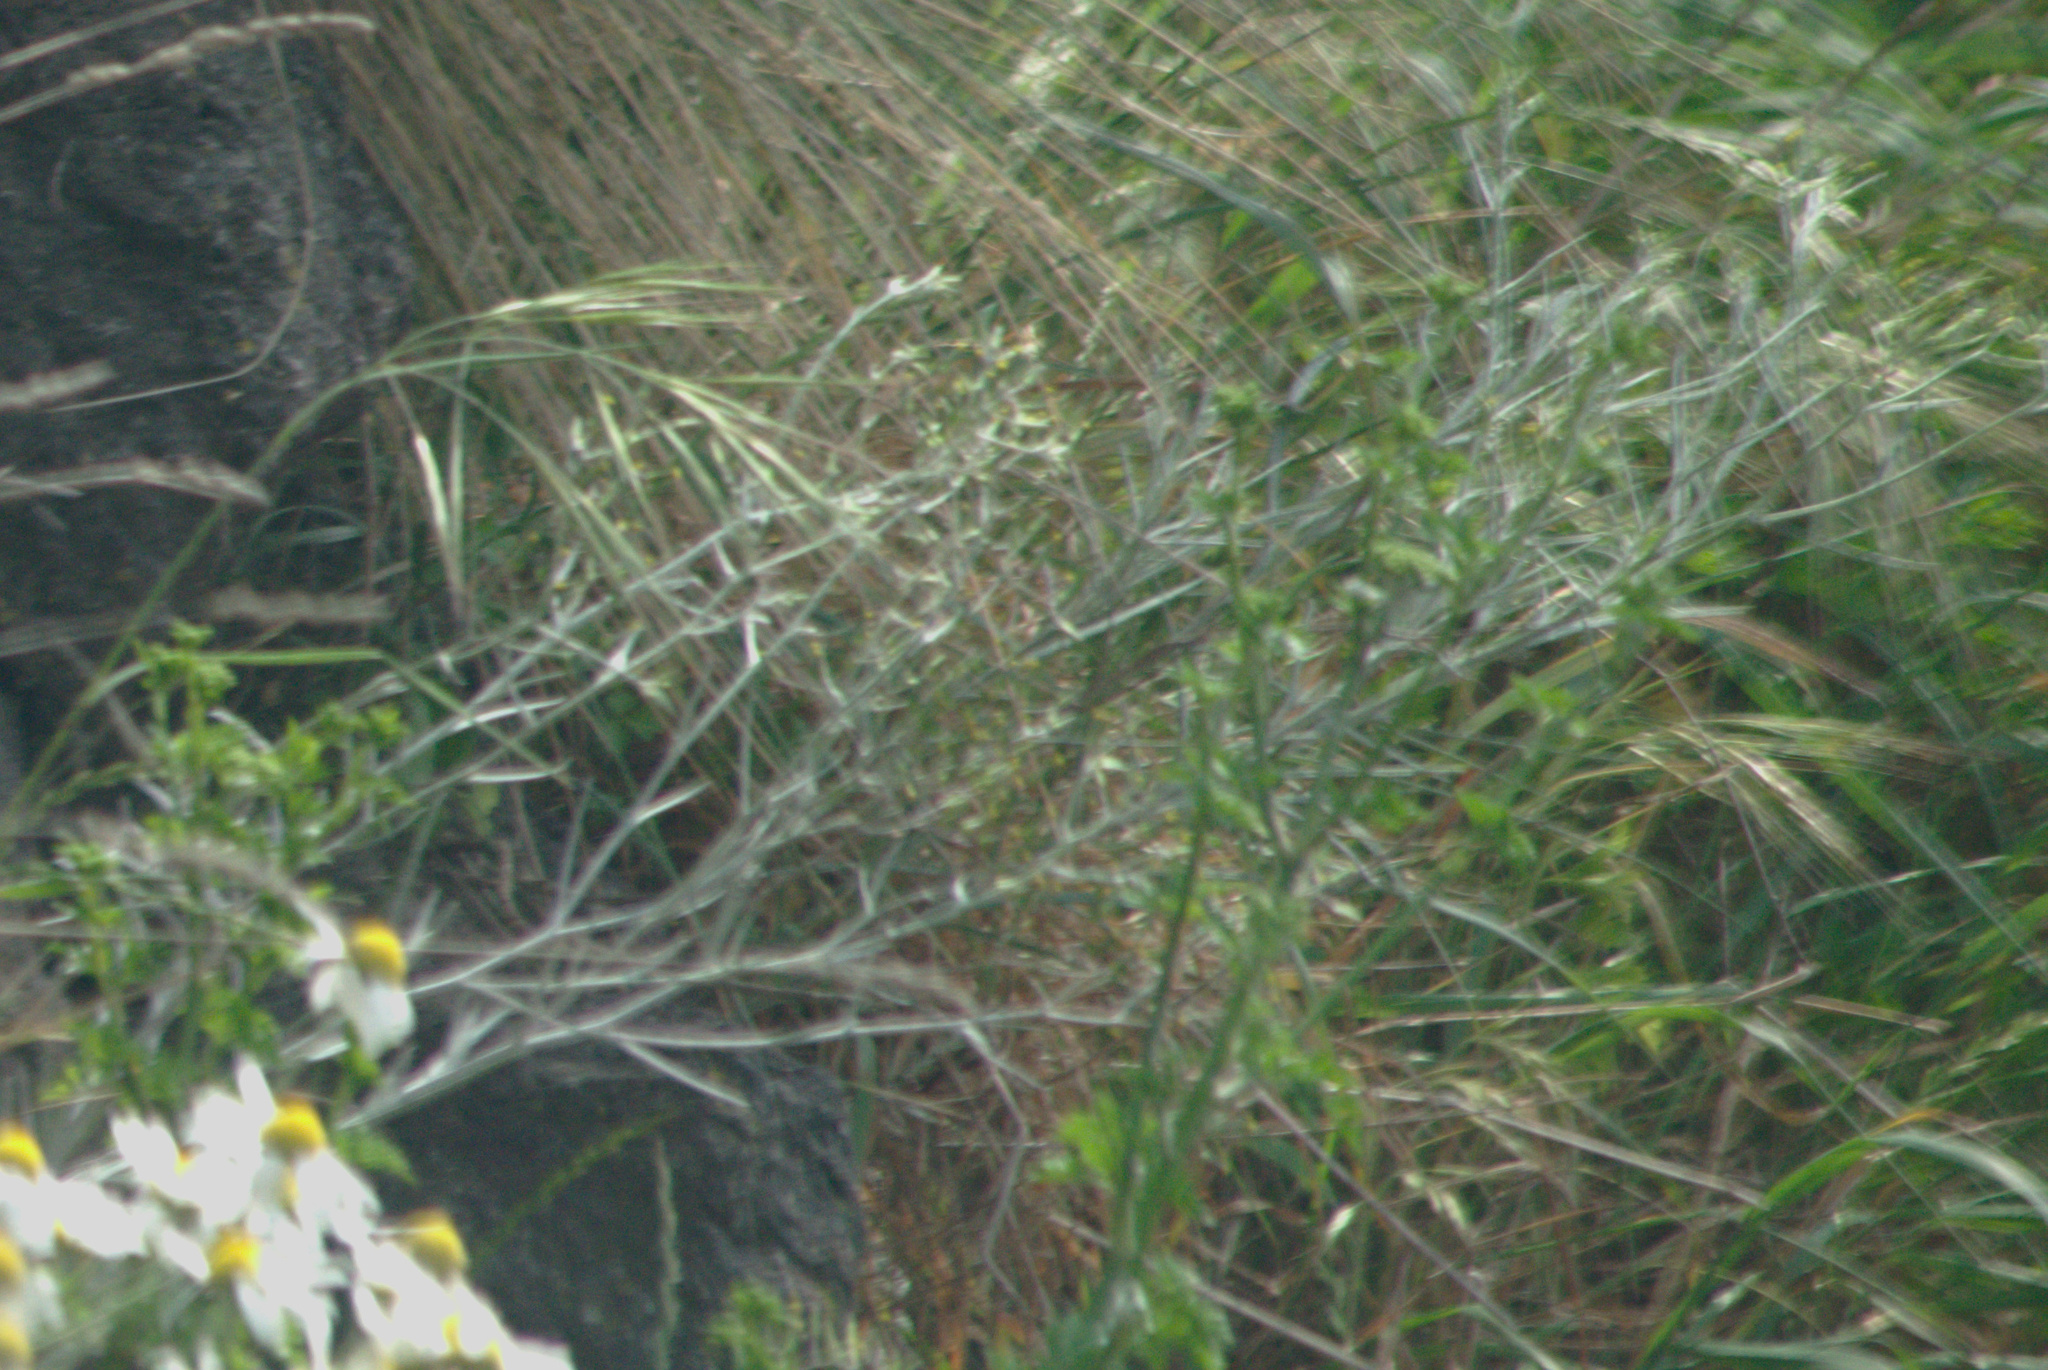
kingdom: Plantae
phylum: Tracheophyta
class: Magnoliopsida
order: Asterales
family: Asteraceae
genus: Senecio
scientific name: Senecio quadridentatus
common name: Cotton fireweed
